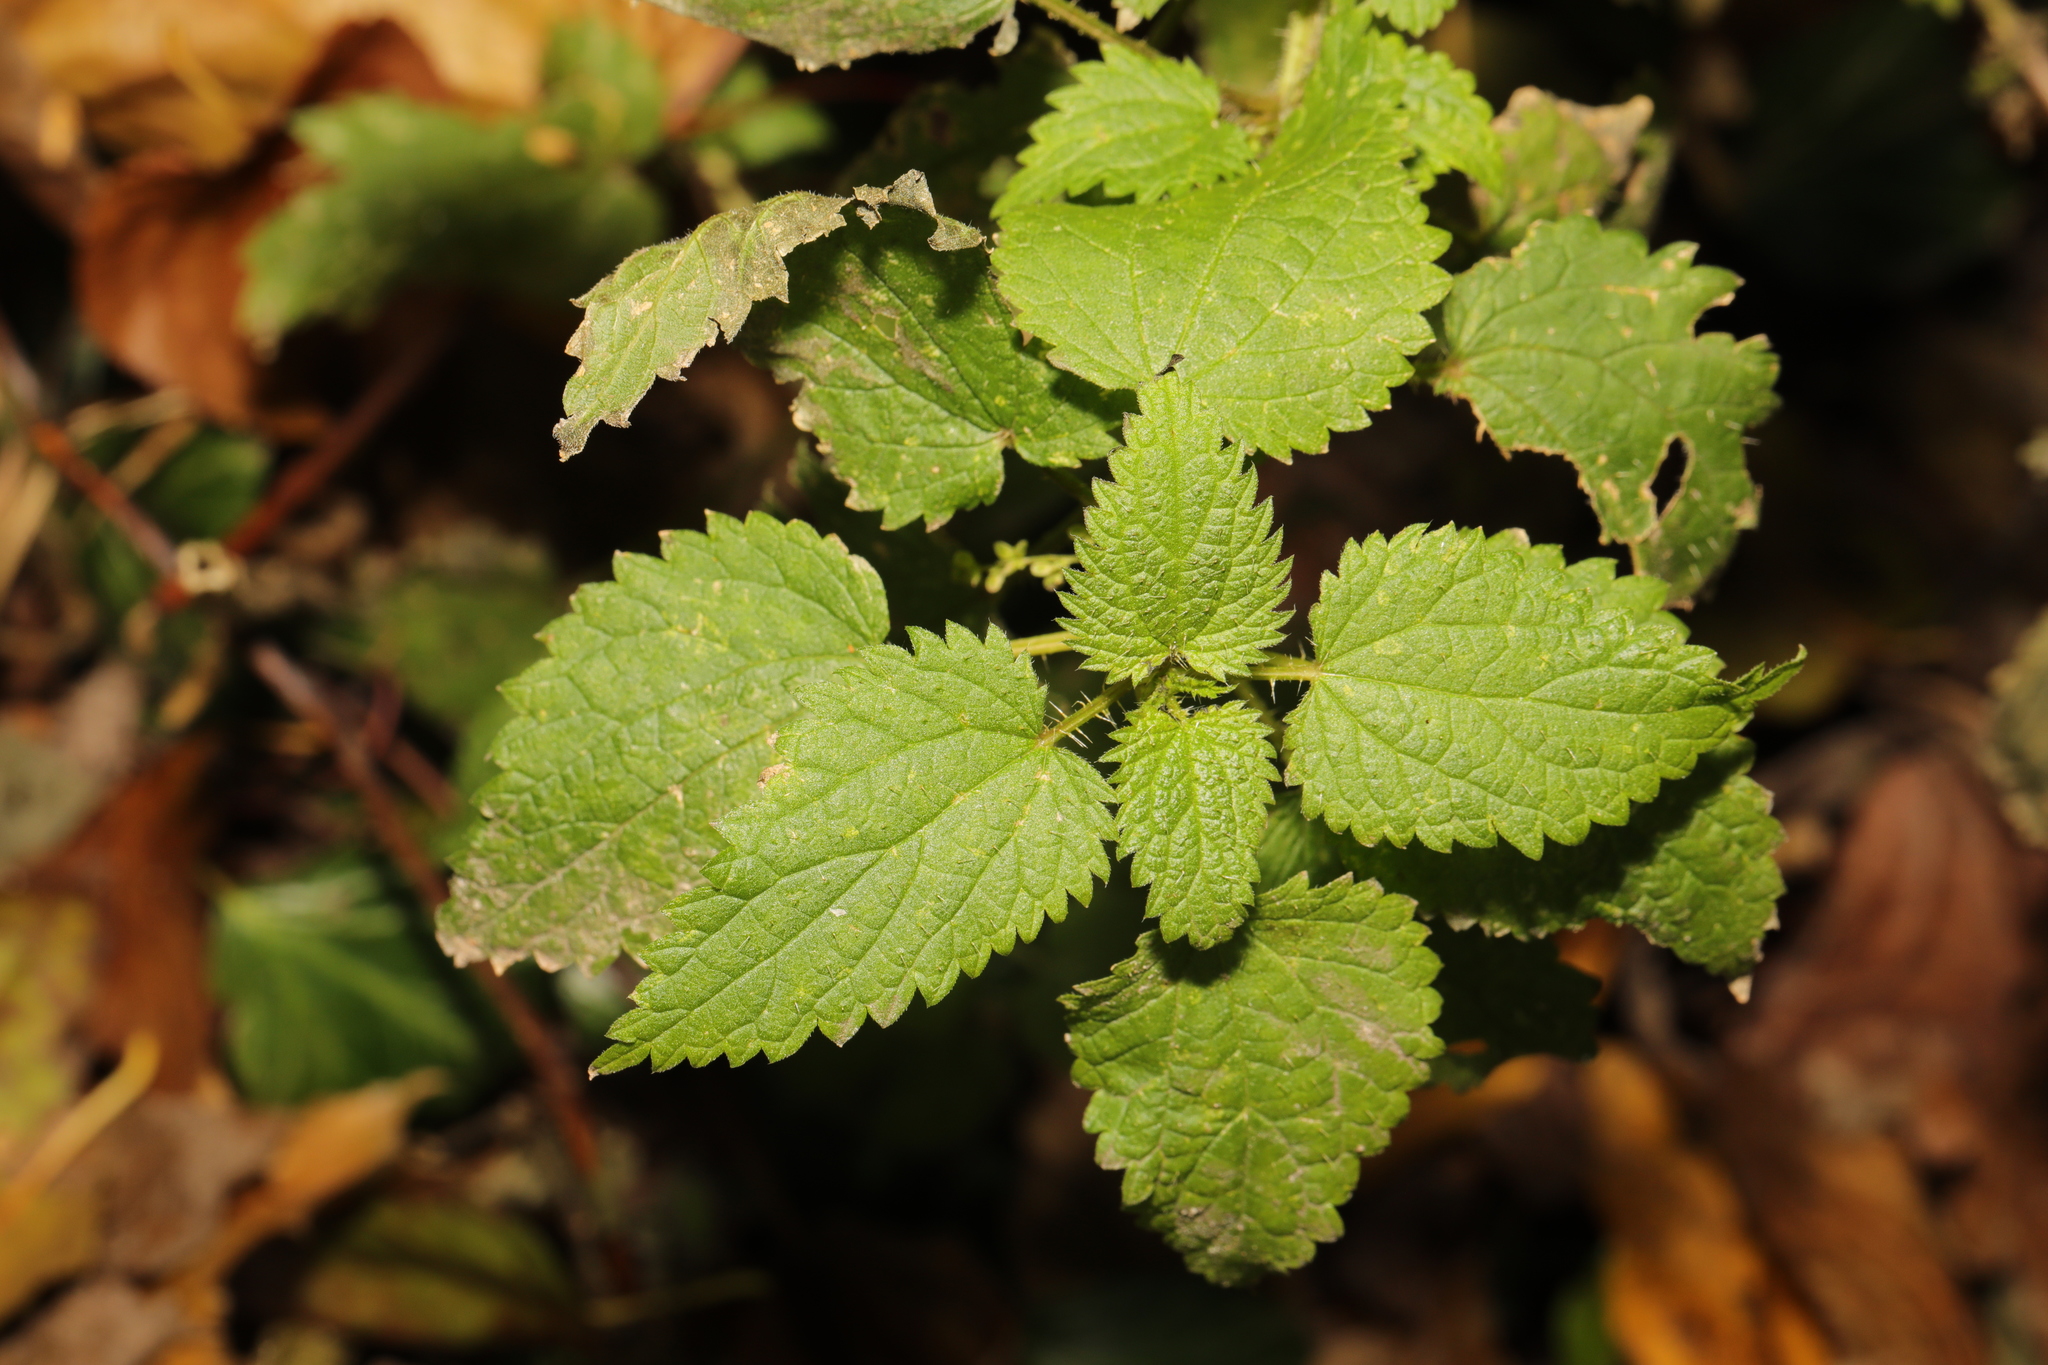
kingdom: Plantae
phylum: Tracheophyta
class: Magnoliopsida
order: Rosales
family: Urticaceae
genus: Urtica
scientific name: Urtica dioica
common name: Common nettle
